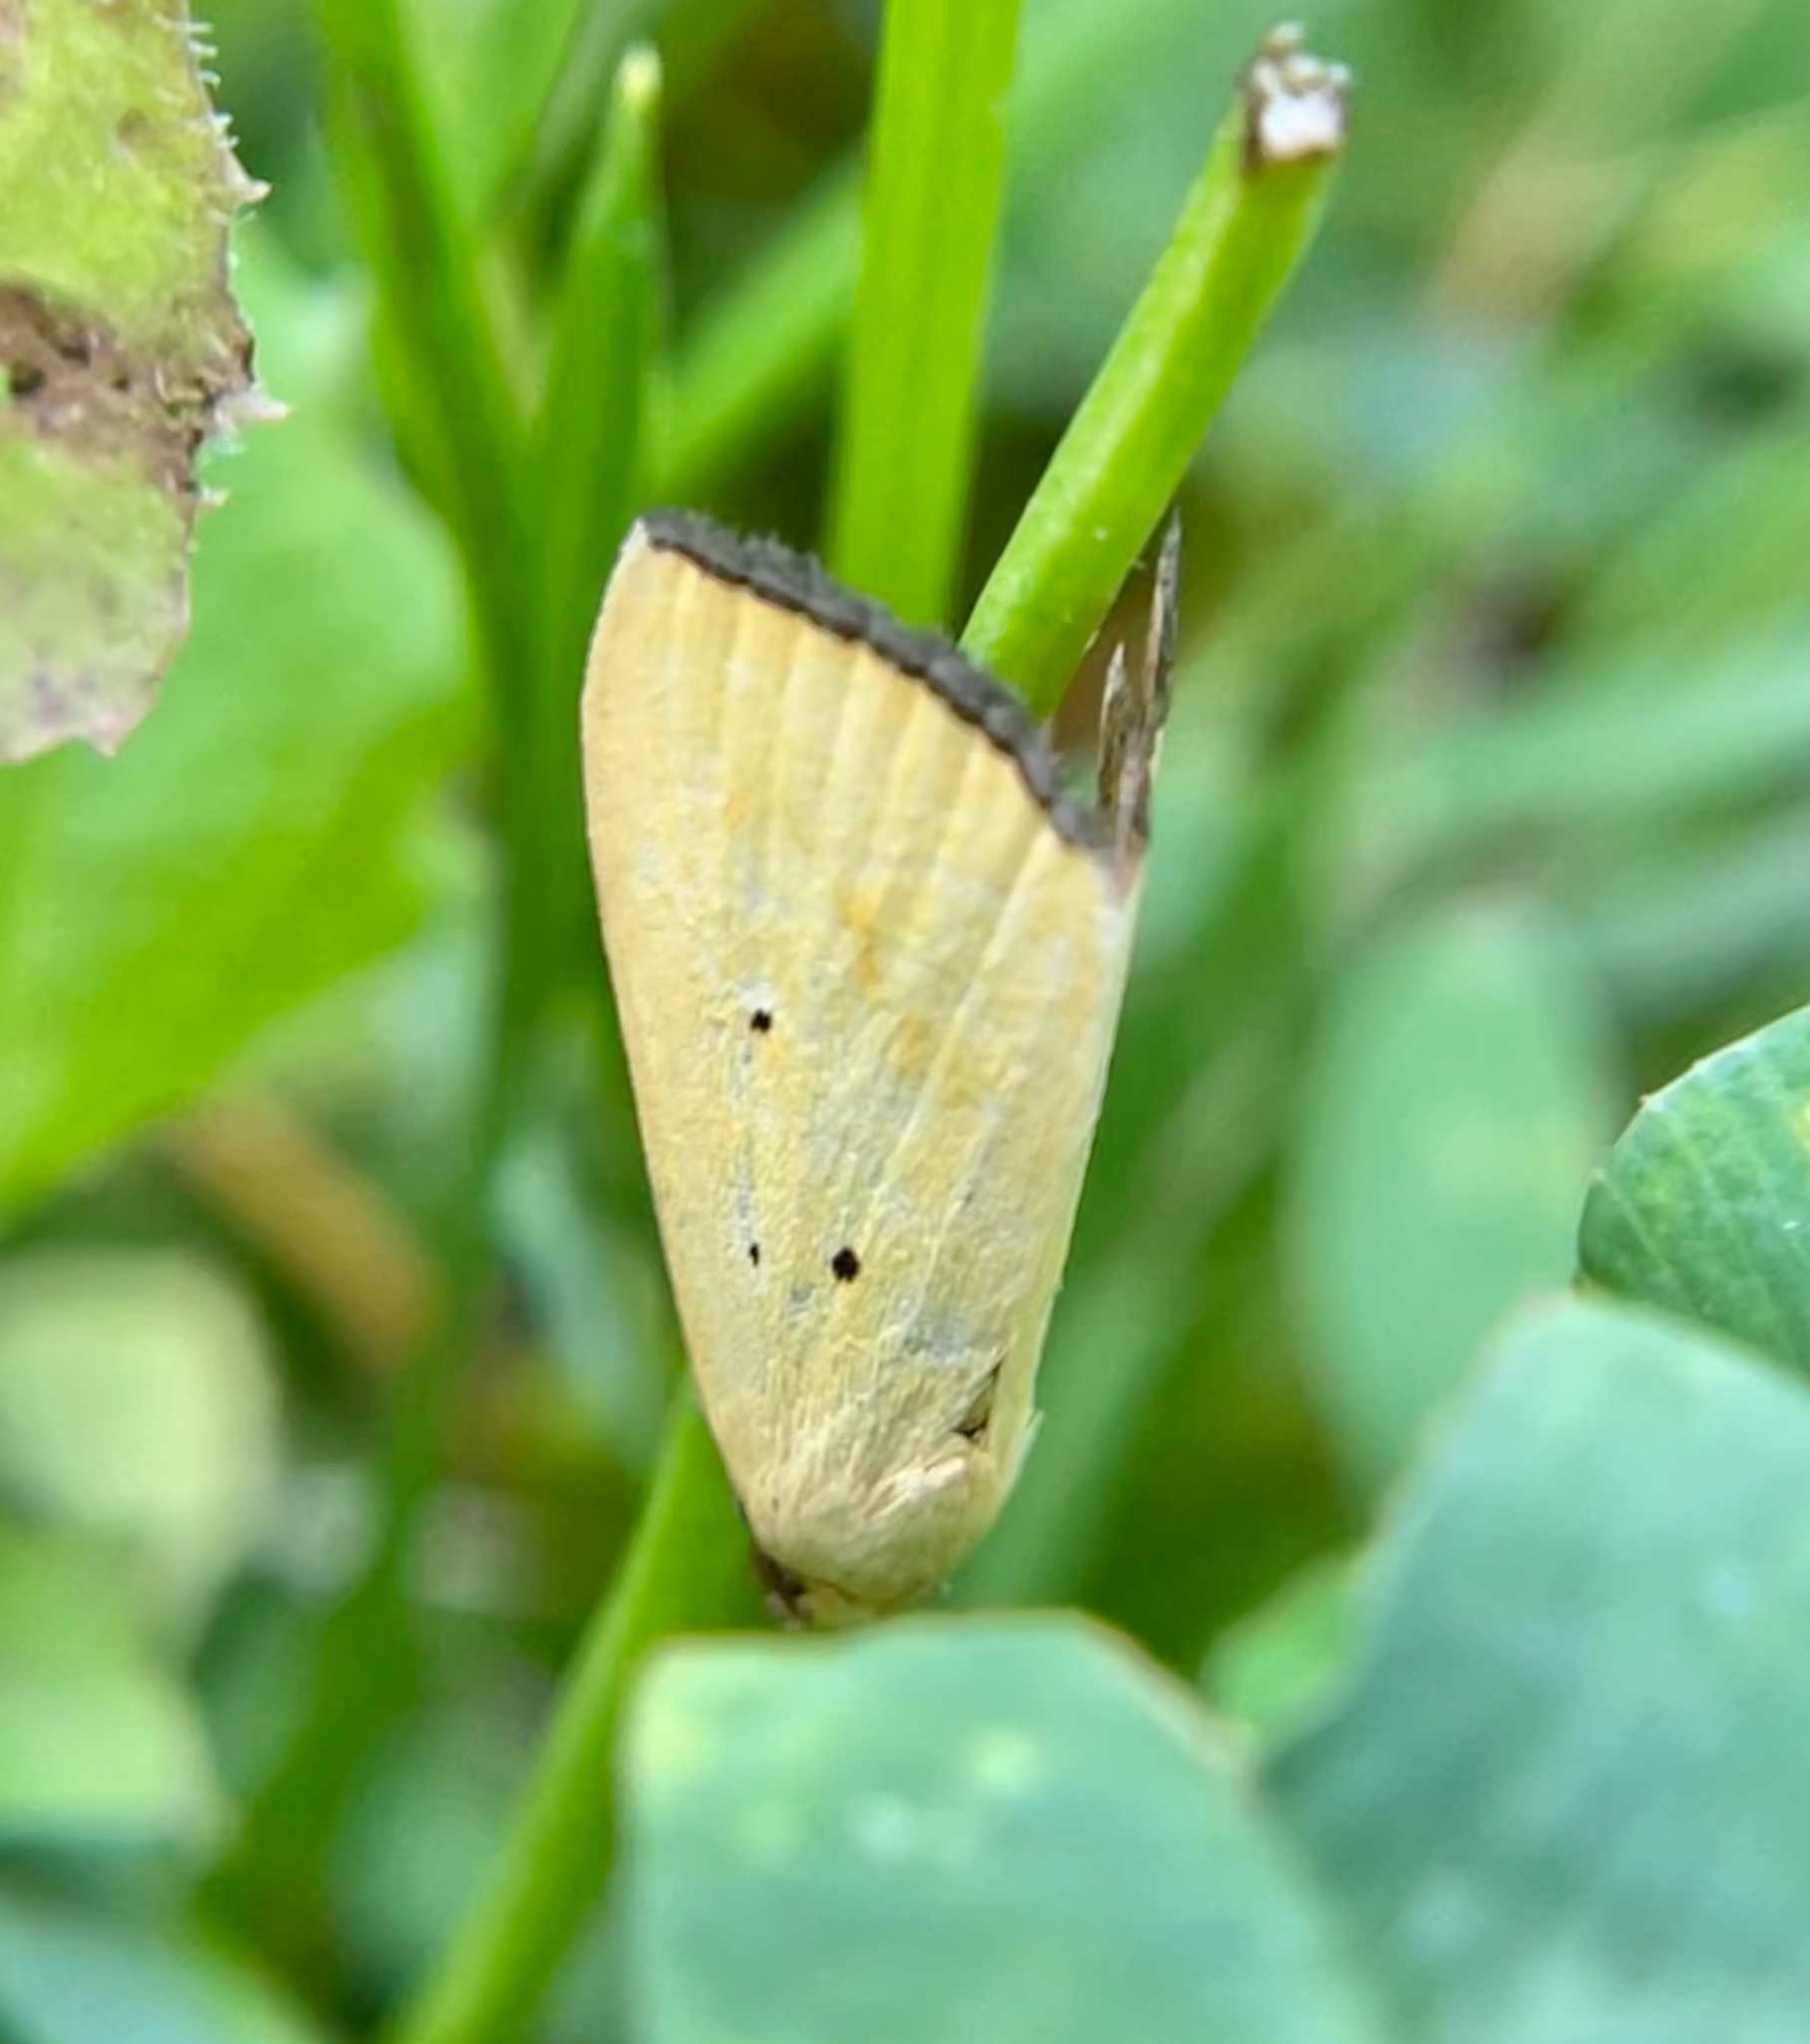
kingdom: Animalia
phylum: Arthropoda
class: Insecta
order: Lepidoptera
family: Noctuidae
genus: Marimatha
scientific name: Marimatha nigrofimbria
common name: Black-bordered lemon moth
